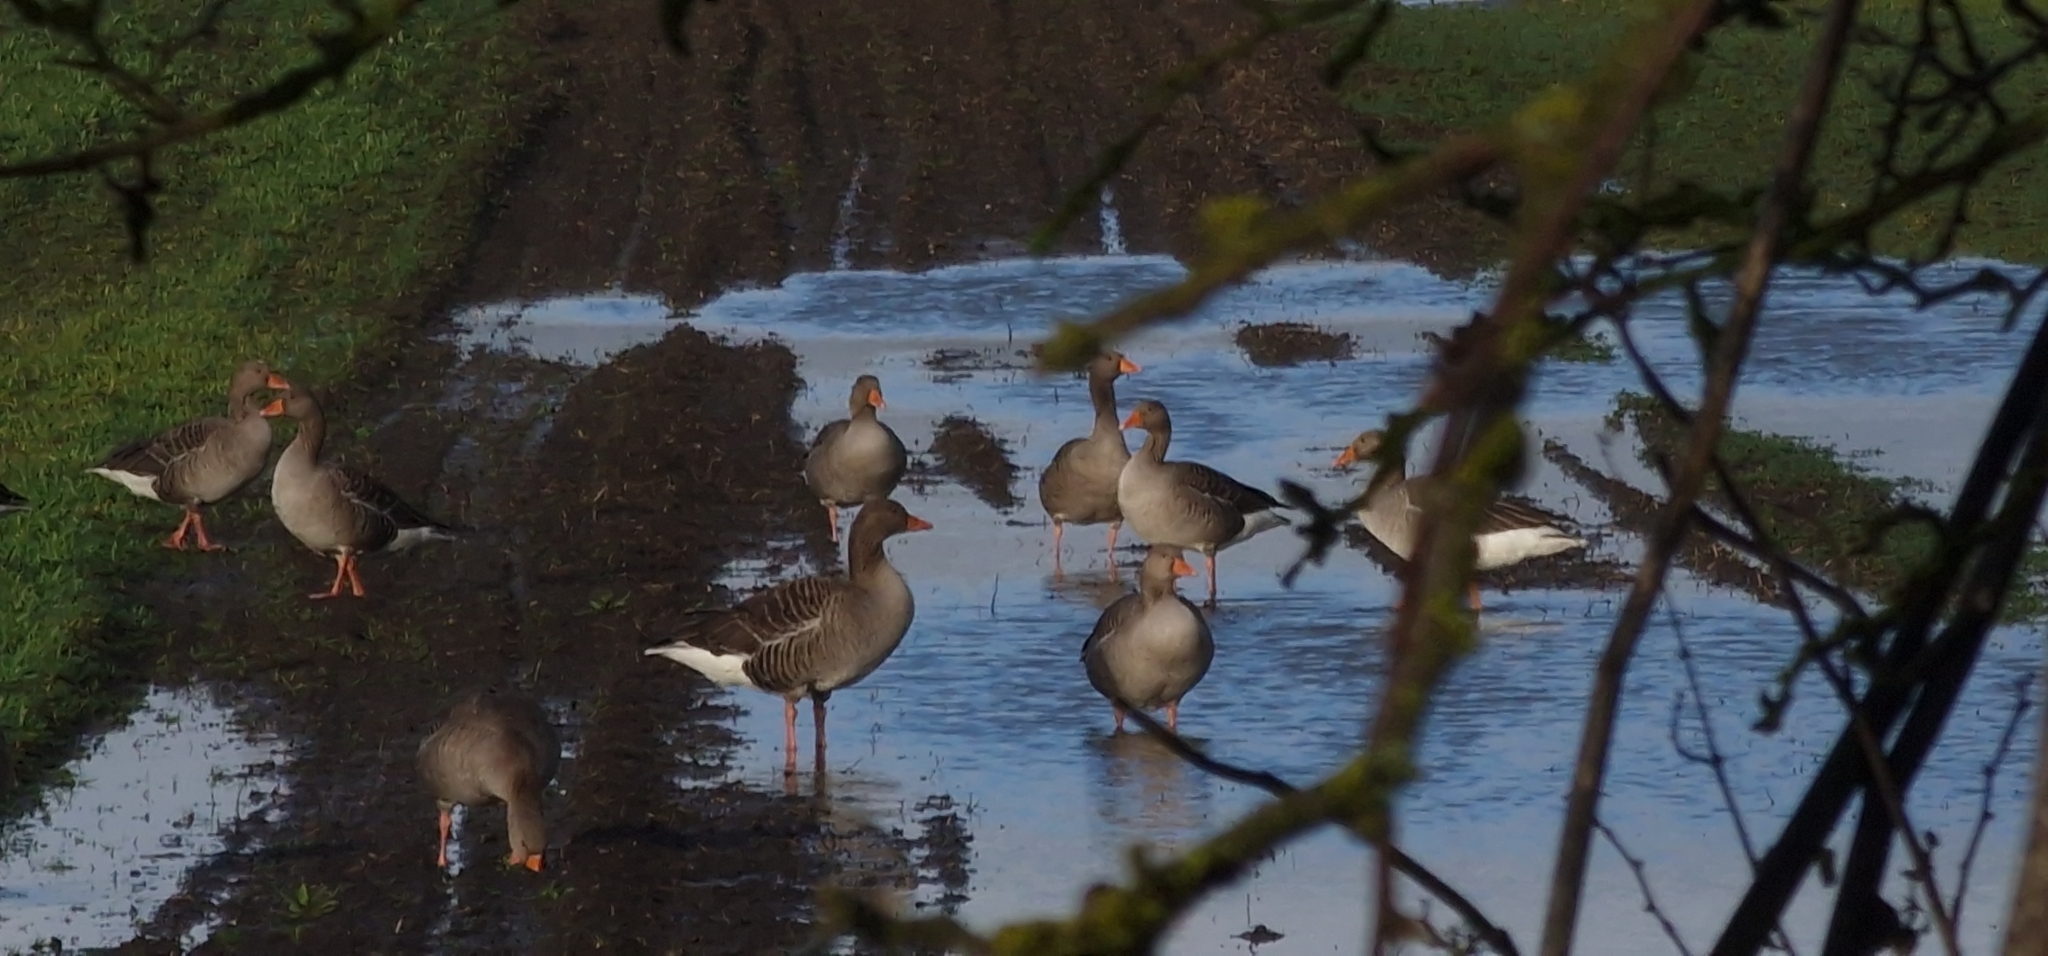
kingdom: Animalia
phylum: Chordata
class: Aves
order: Anseriformes
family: Anatidae
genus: Anser
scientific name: Anser anser
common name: Greylag goose
